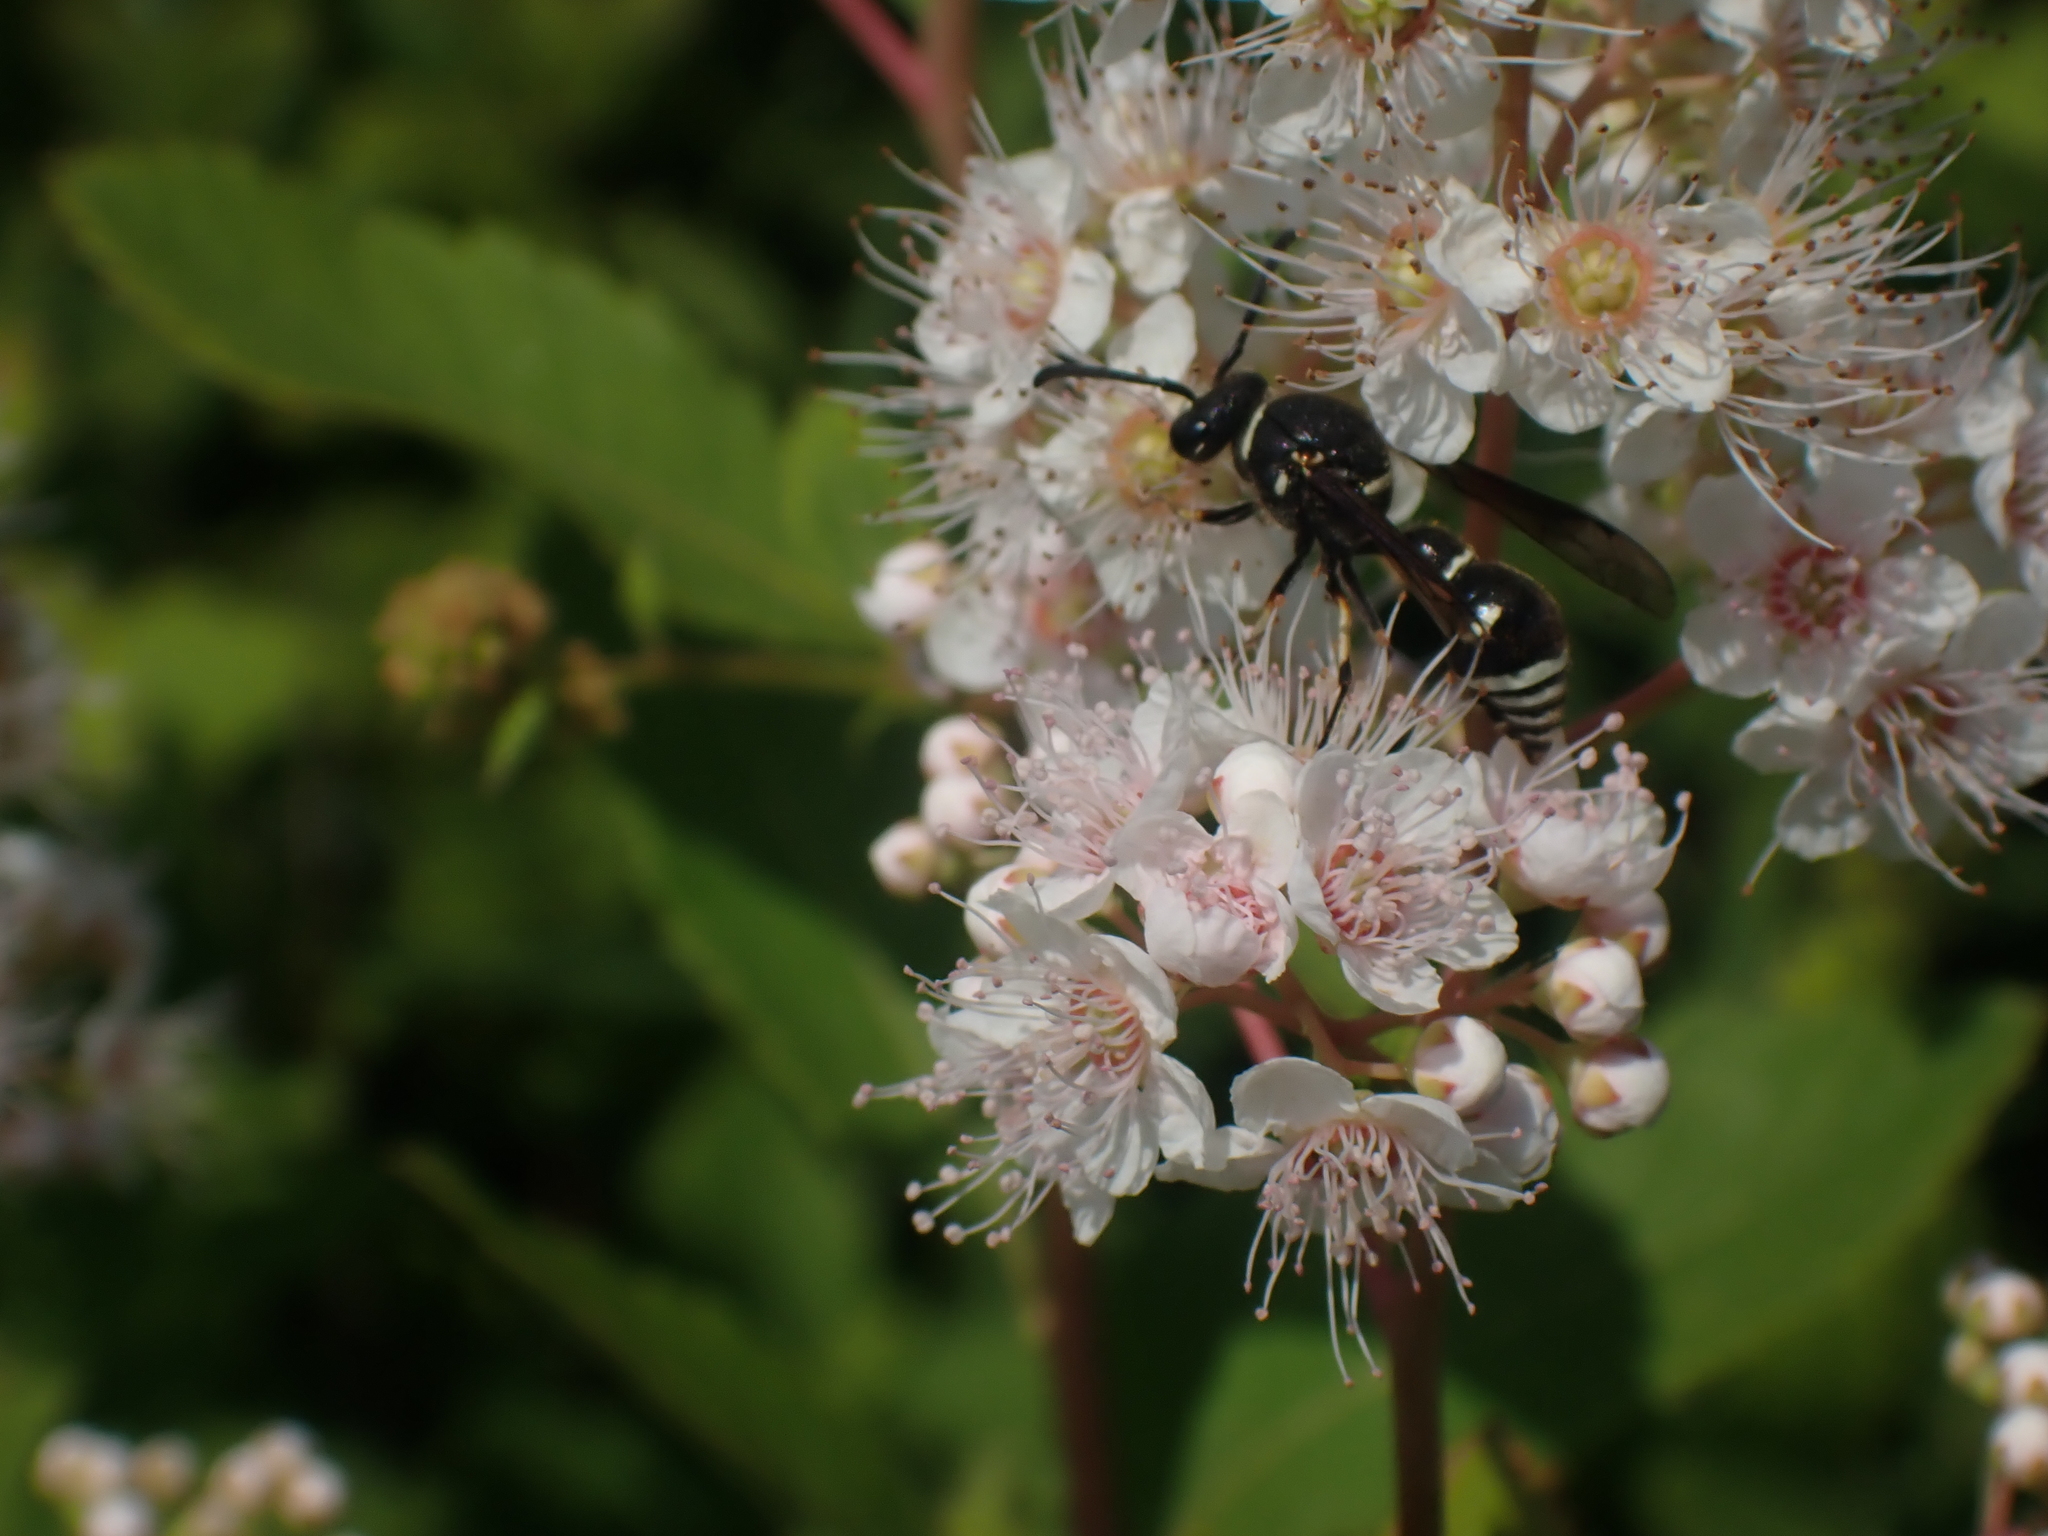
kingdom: Animalia
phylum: Arthropoda
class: Insecta
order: Hymenoptera
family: Vespidae
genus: Eumenes
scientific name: Eumenes crucifera
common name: Cross potter wasp
